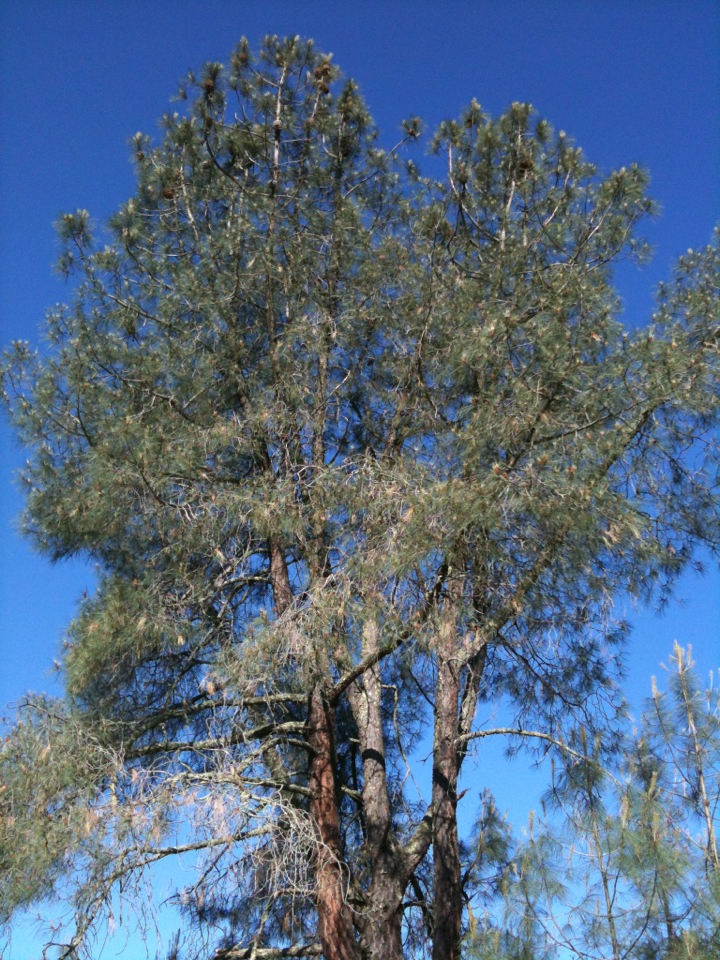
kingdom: Plantae
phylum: Tracheophyta
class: Pinopsida
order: Pinales
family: Pinaceae
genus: Pinus
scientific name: Pinus sabiniana
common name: Bull pine
